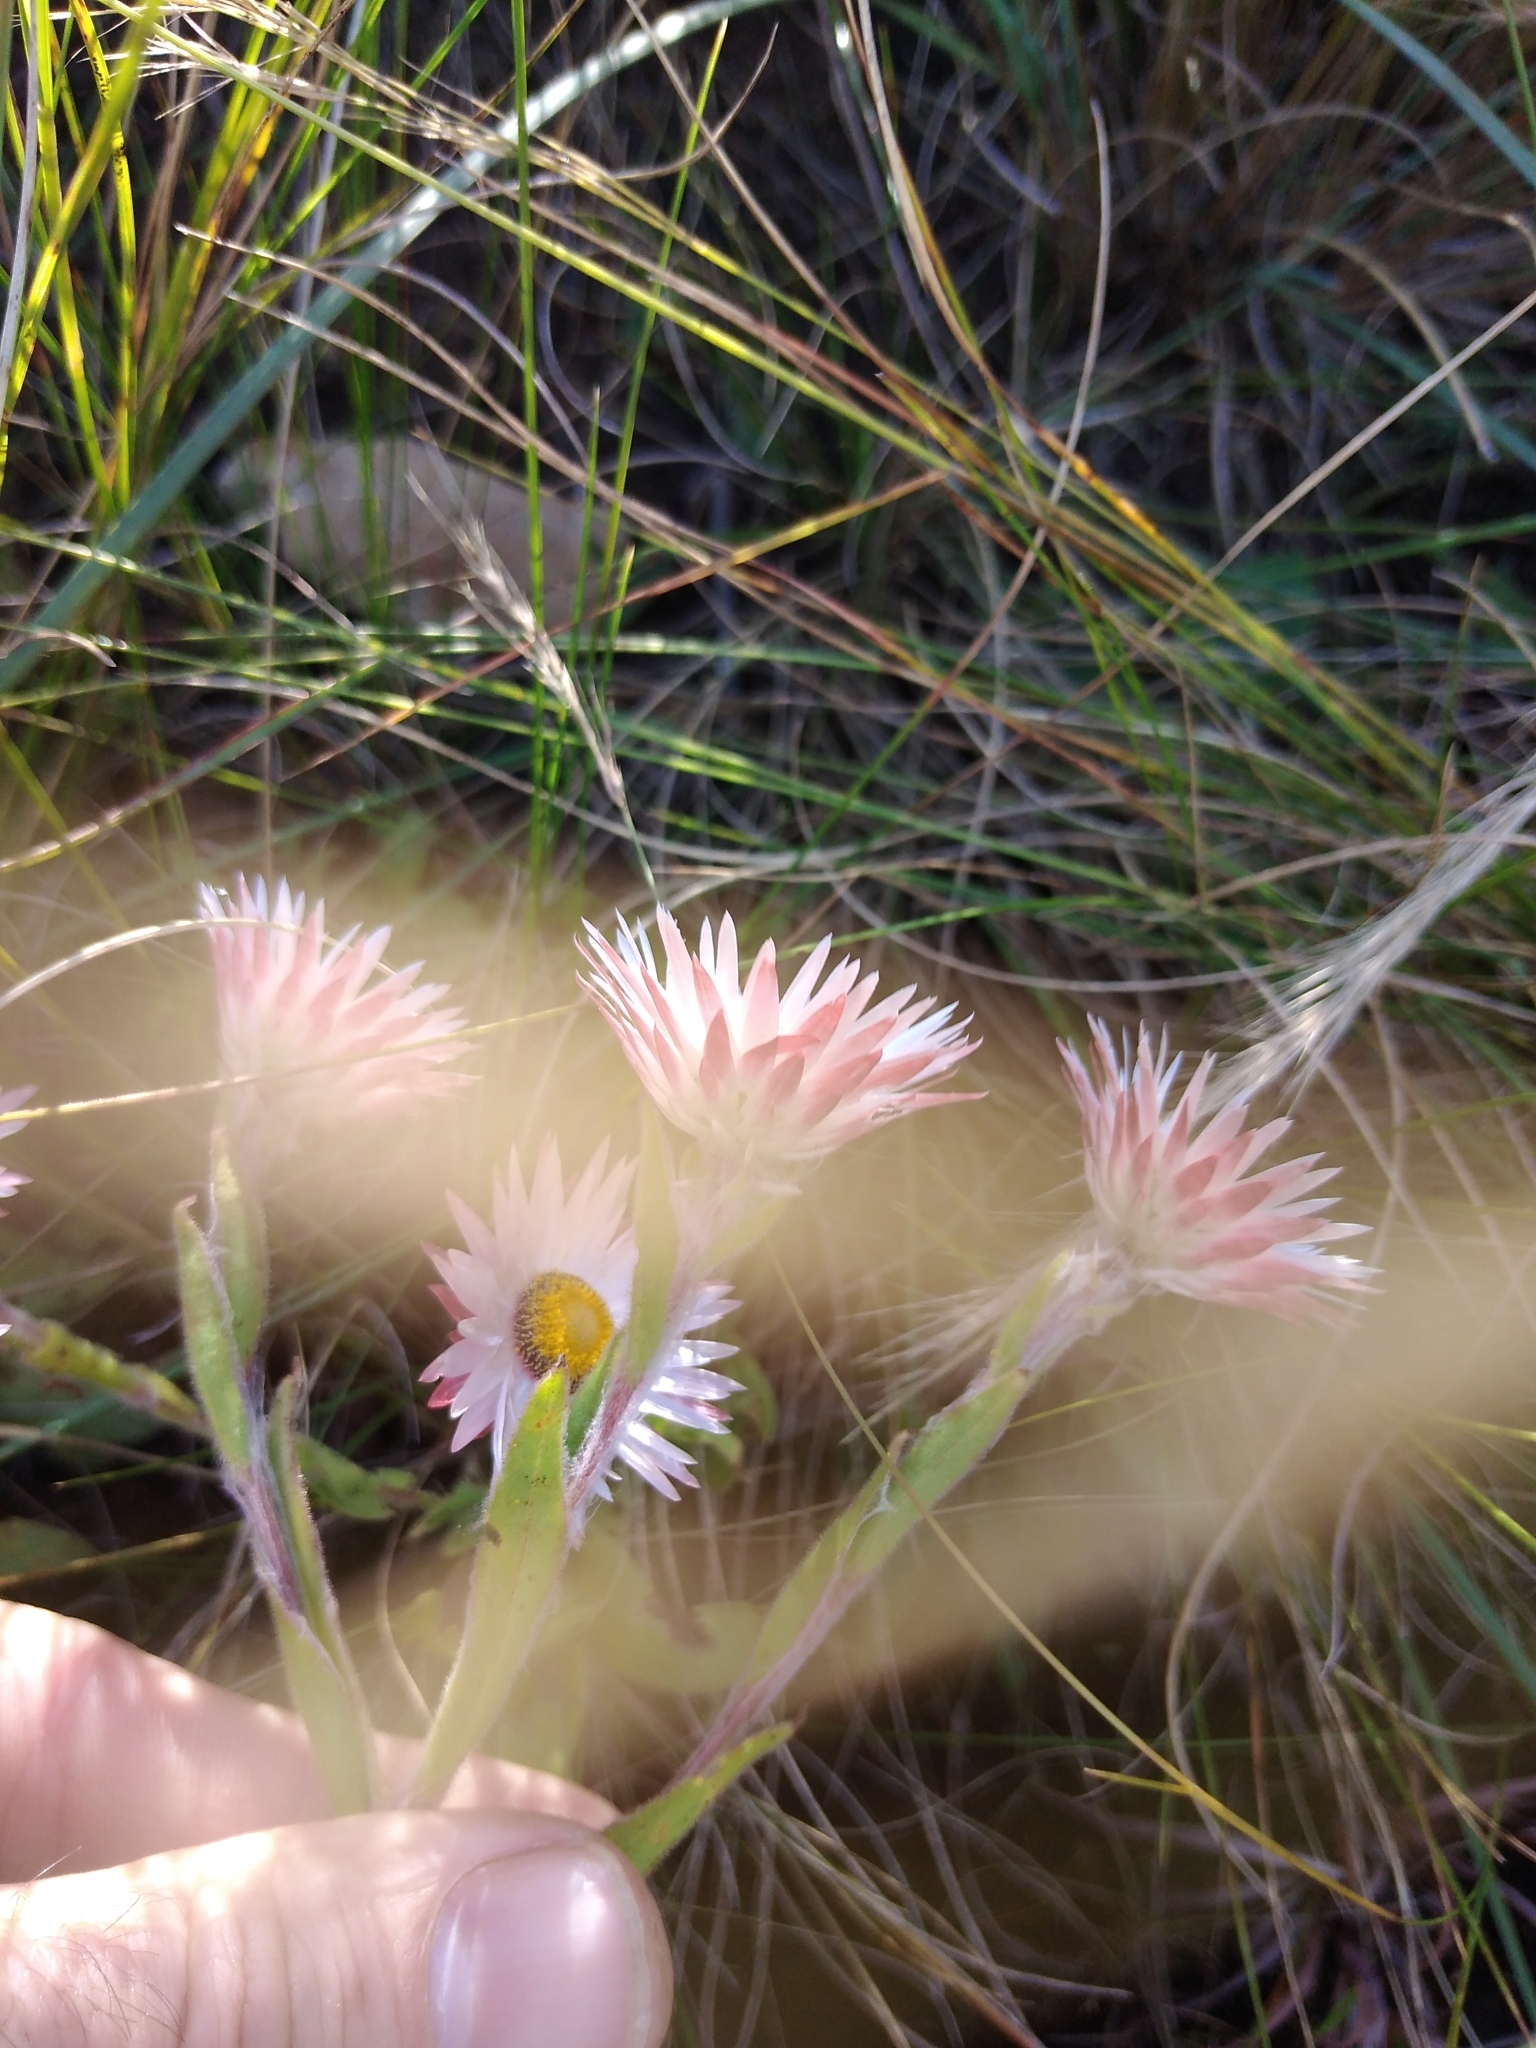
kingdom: Plantae
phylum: Tracheophyta
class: Magnoliopsida
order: Asterales
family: Asteraceae
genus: Helichrysum
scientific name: Helichrysum adenocarpum
